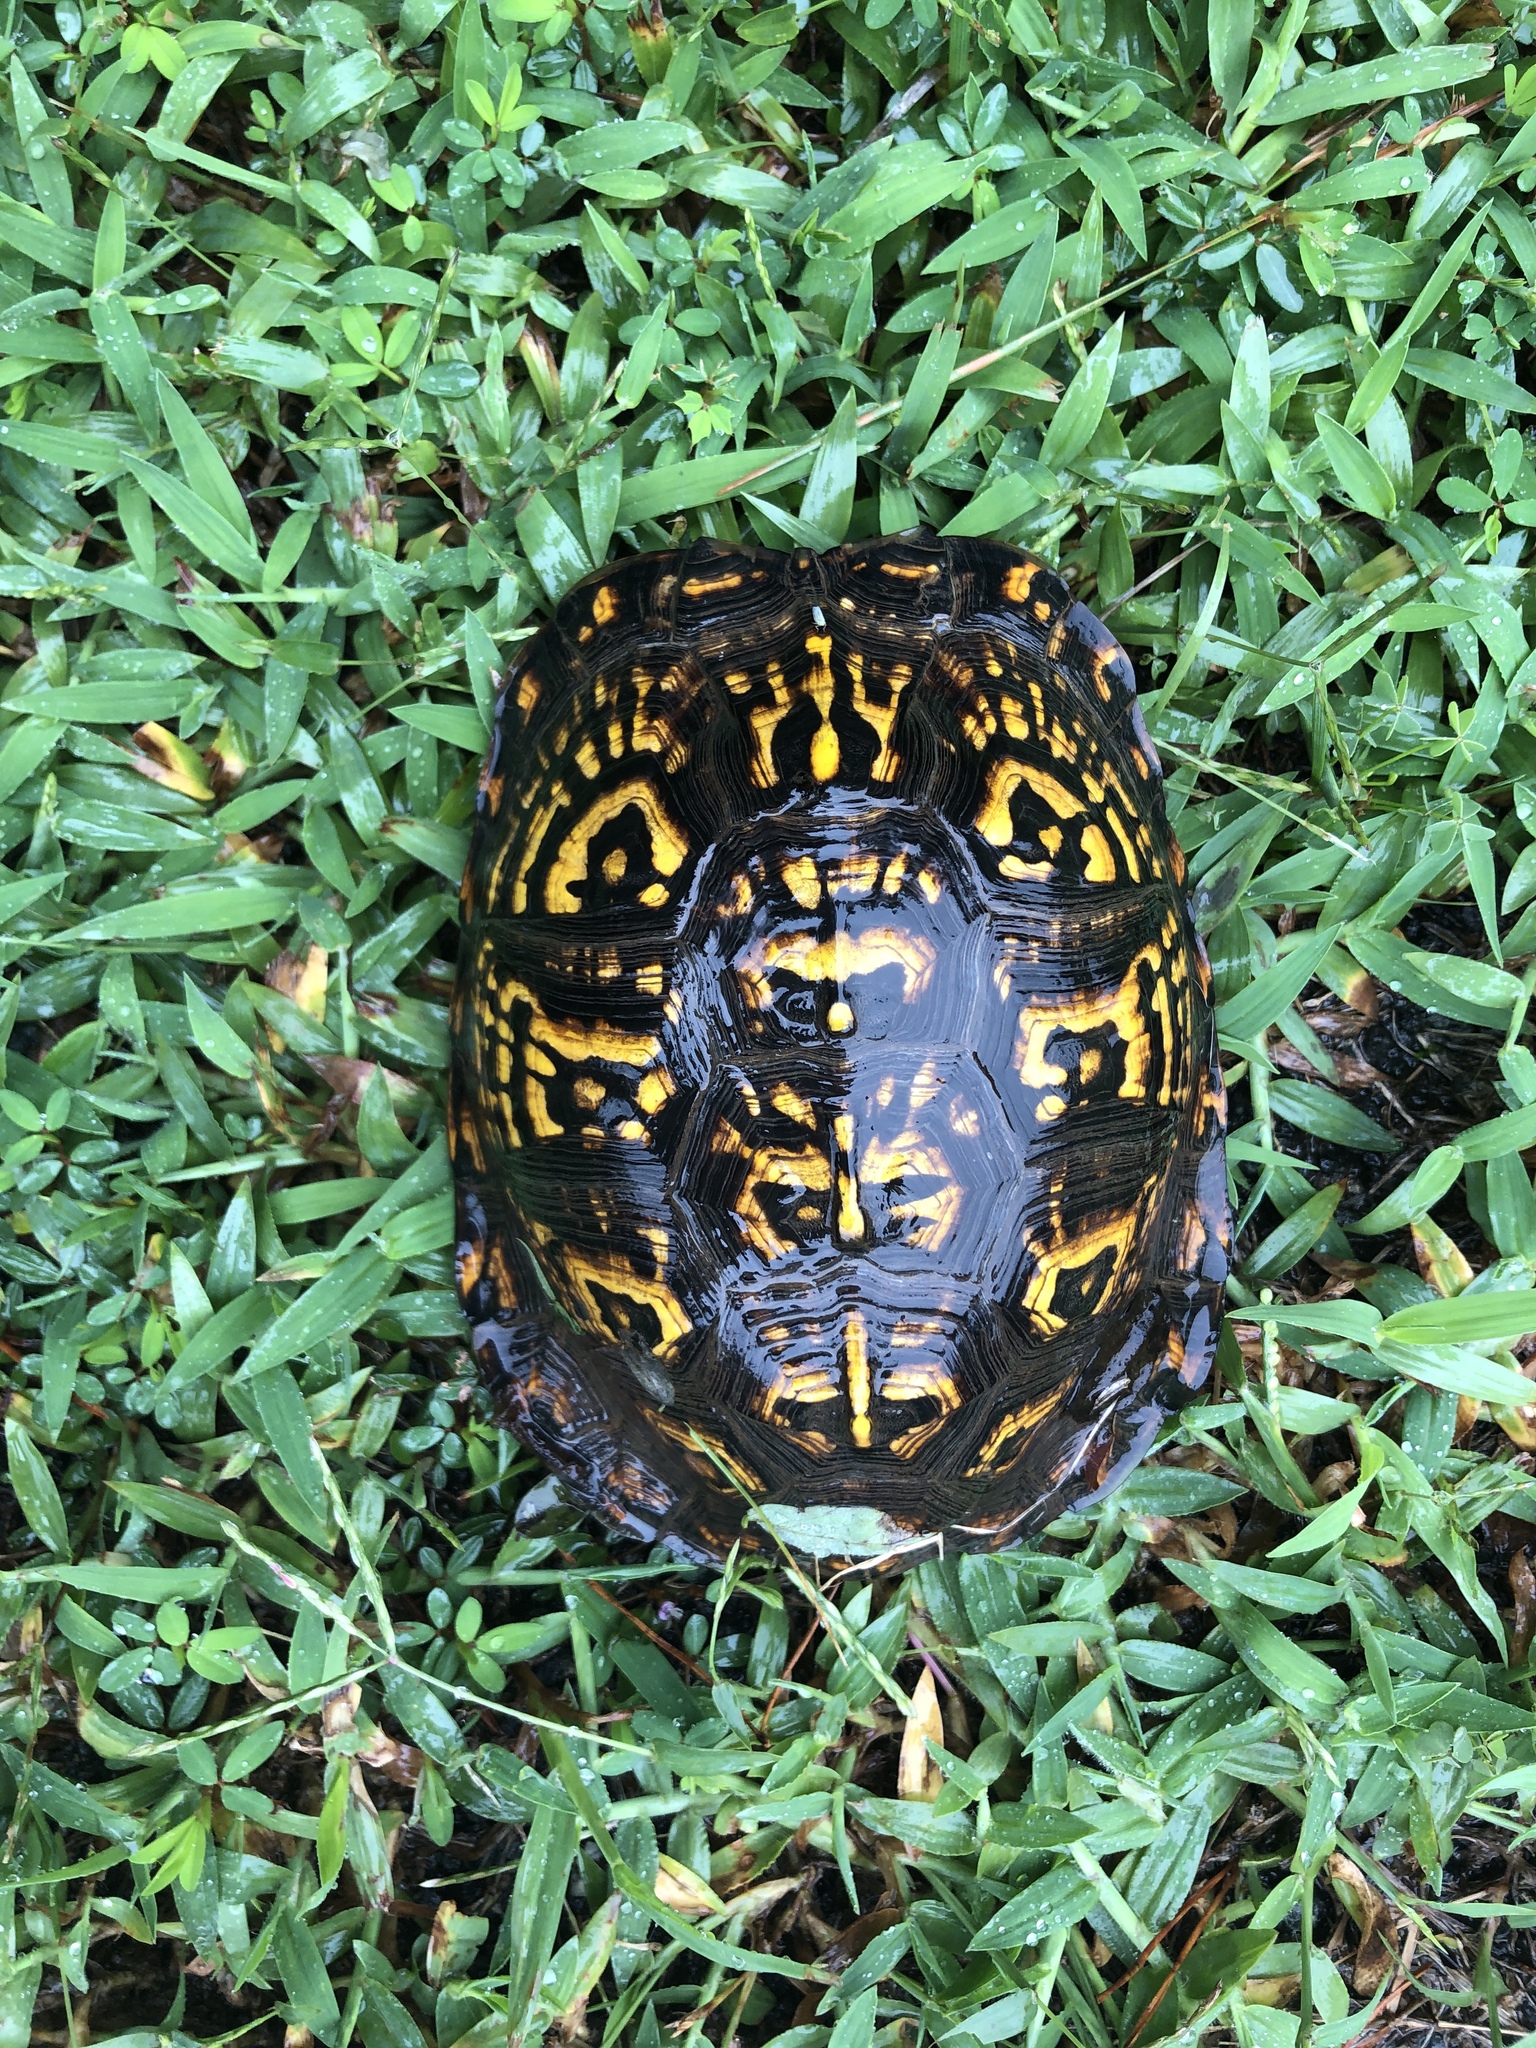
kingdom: Animalia
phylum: Chordata
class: Testudines
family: Emydidae
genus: Terrapene
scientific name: Terrapene carolina
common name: Common box turtle
